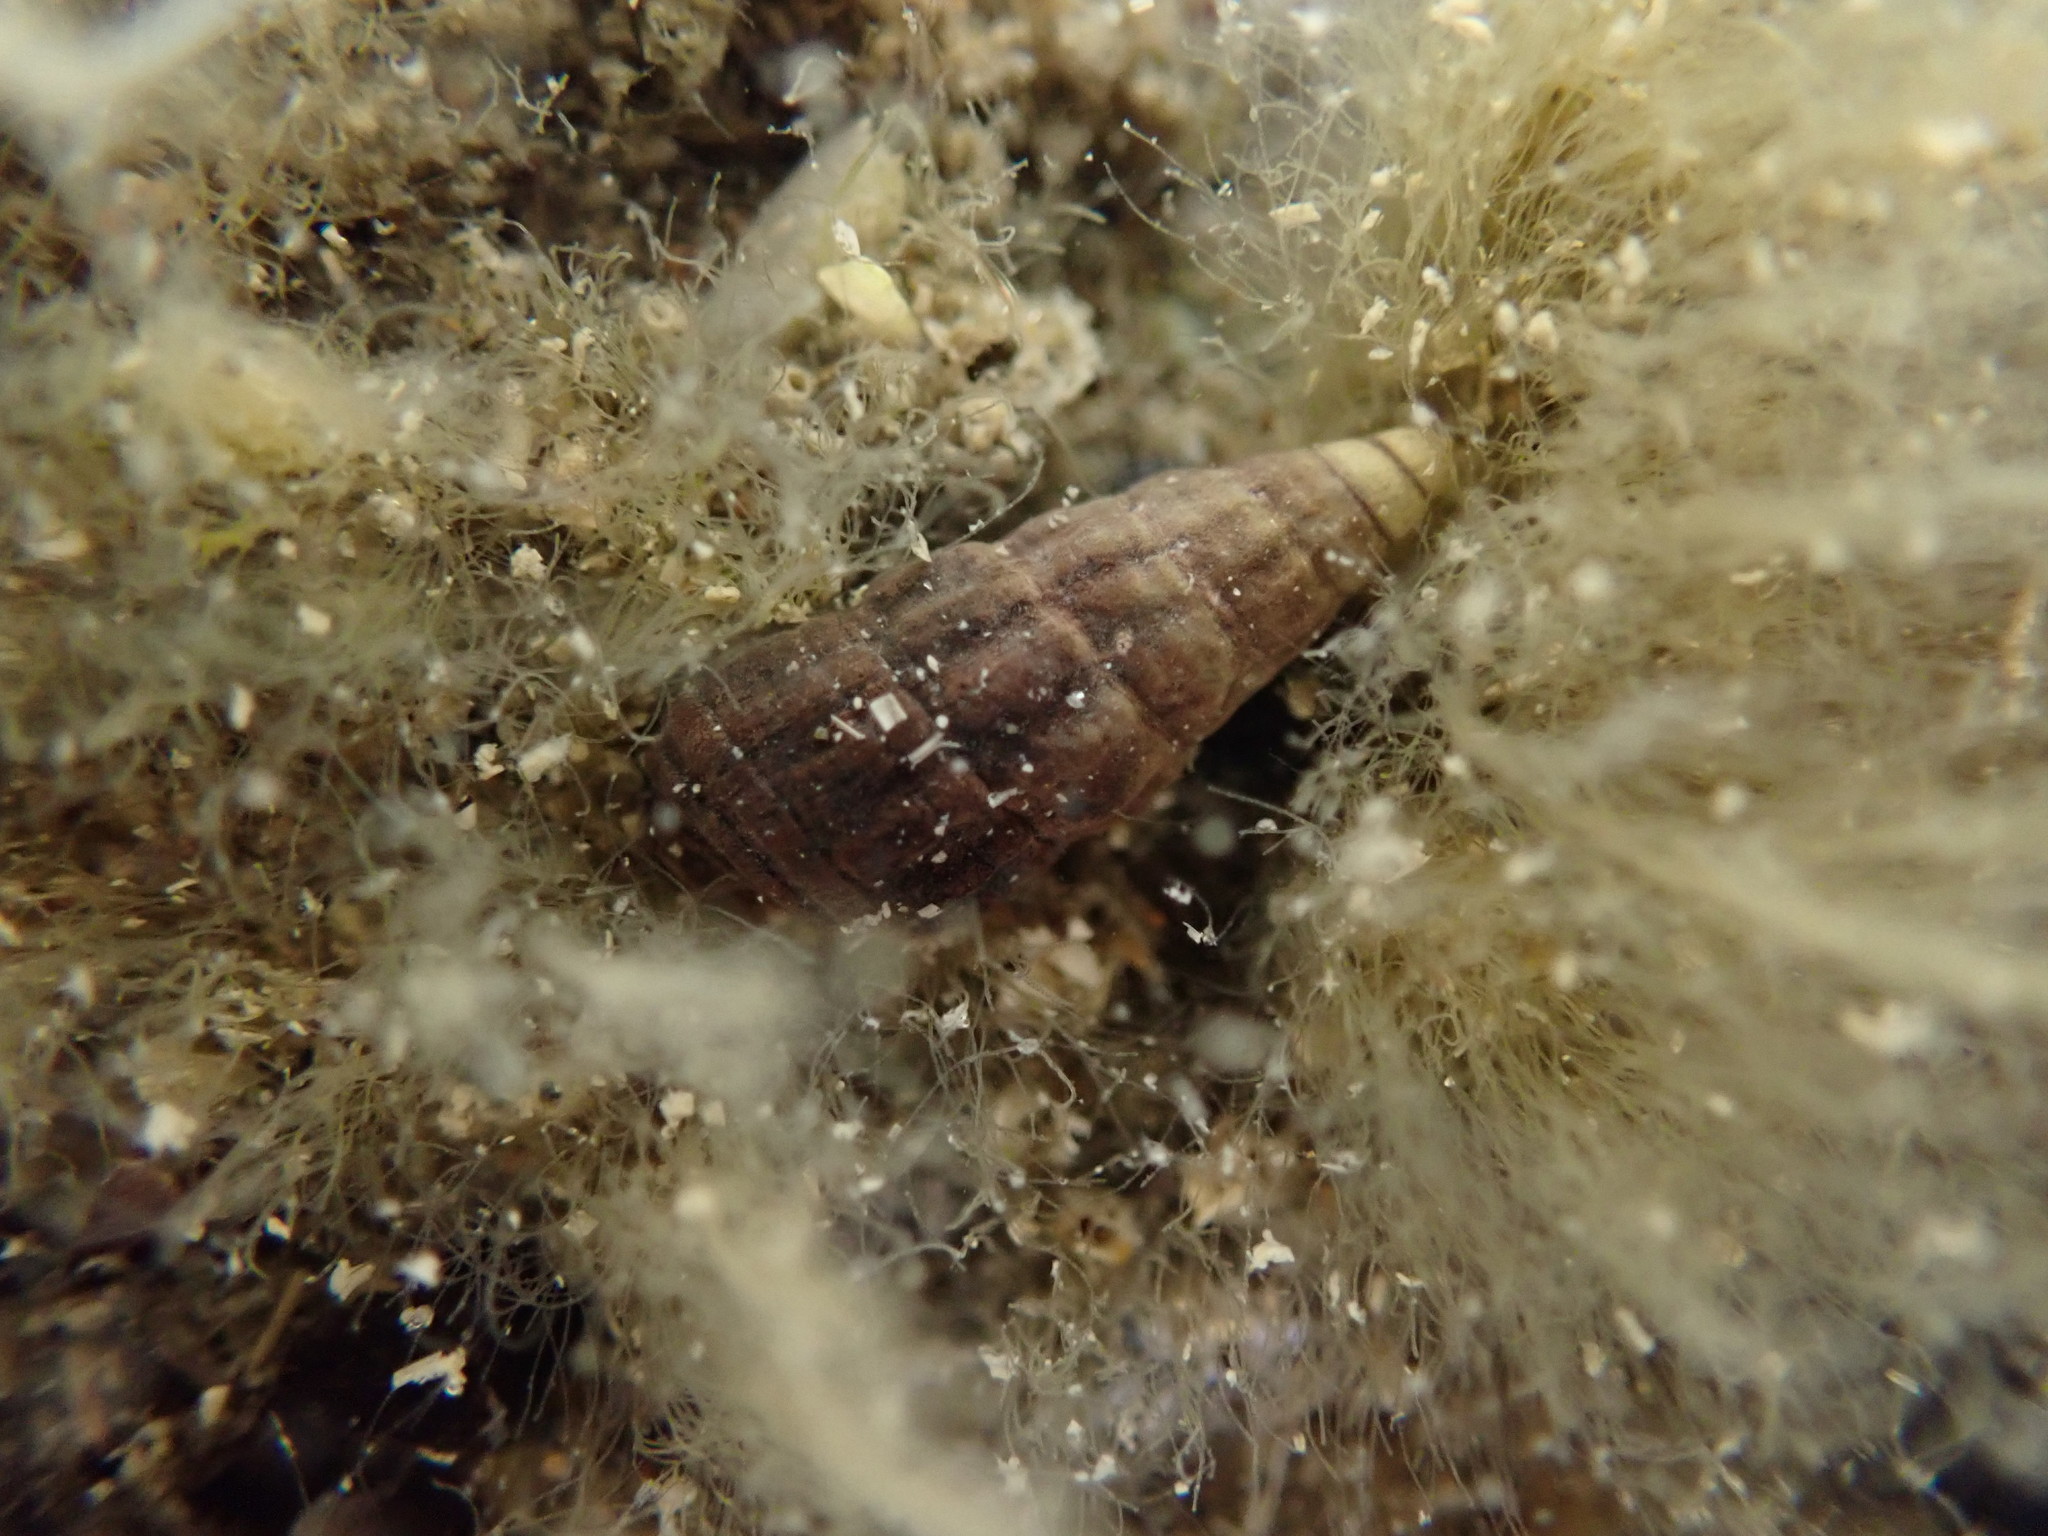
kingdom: Animalia
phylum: Mollusca
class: Gastropoda
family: Batillariidae
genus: Zeacumantus
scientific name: Zeacumantus subcarinatus
